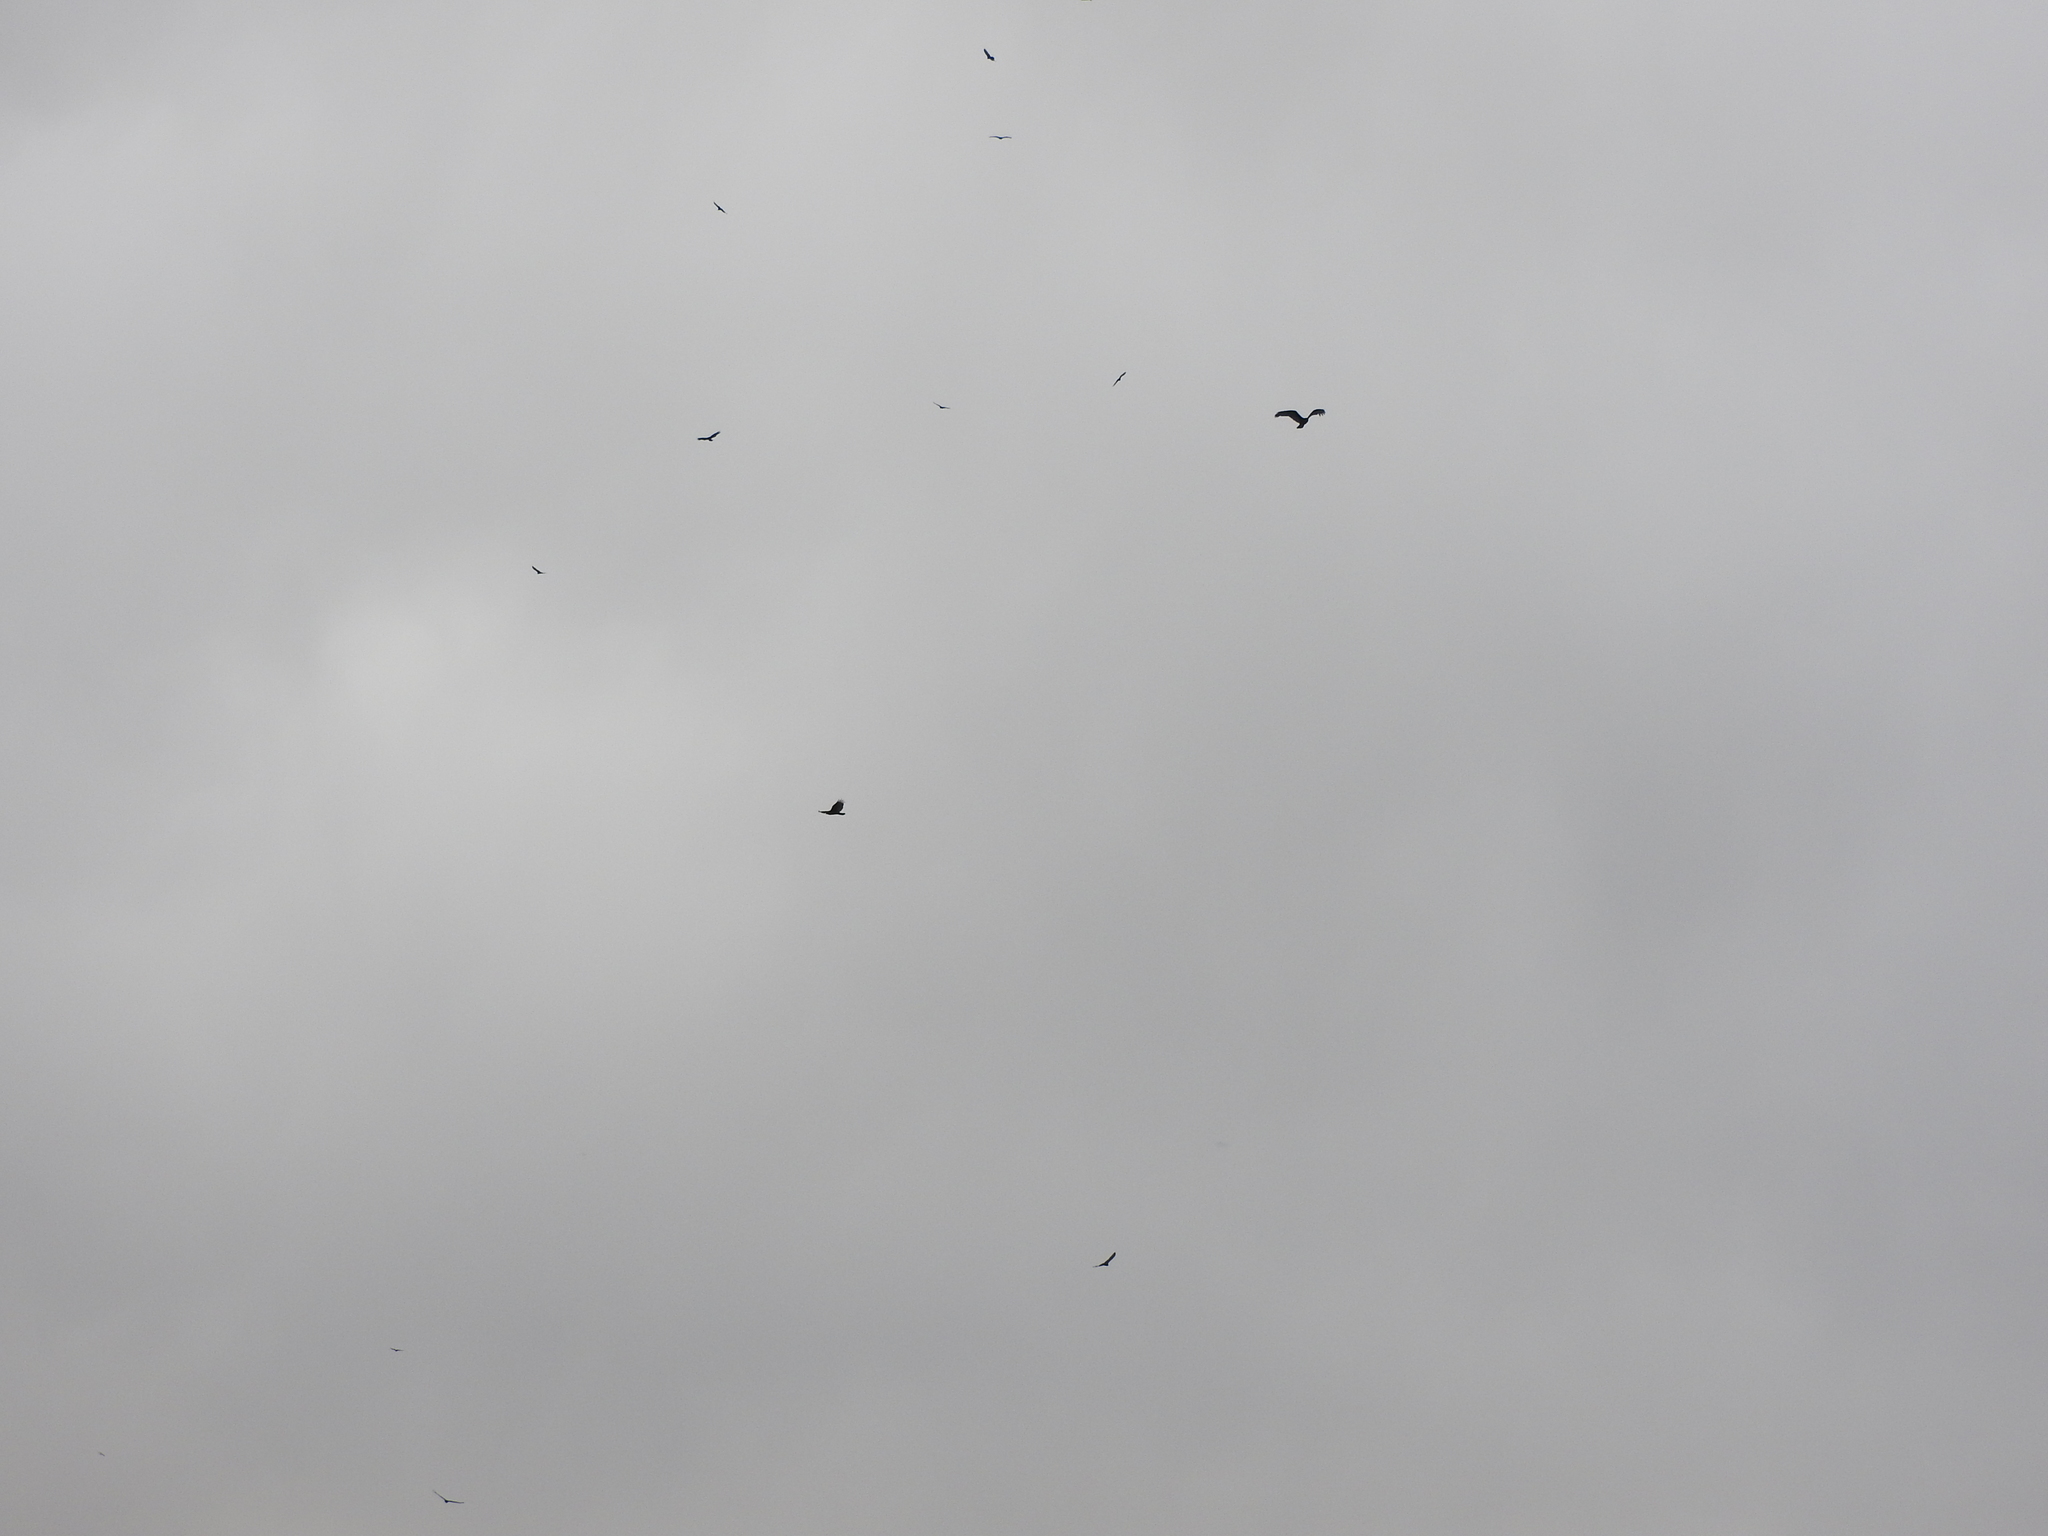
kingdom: Animalia
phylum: Chordata
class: Aves
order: Accipitriformes
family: Cathartidae
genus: Cathartes
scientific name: Cathartes aura
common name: Turkey vulture
